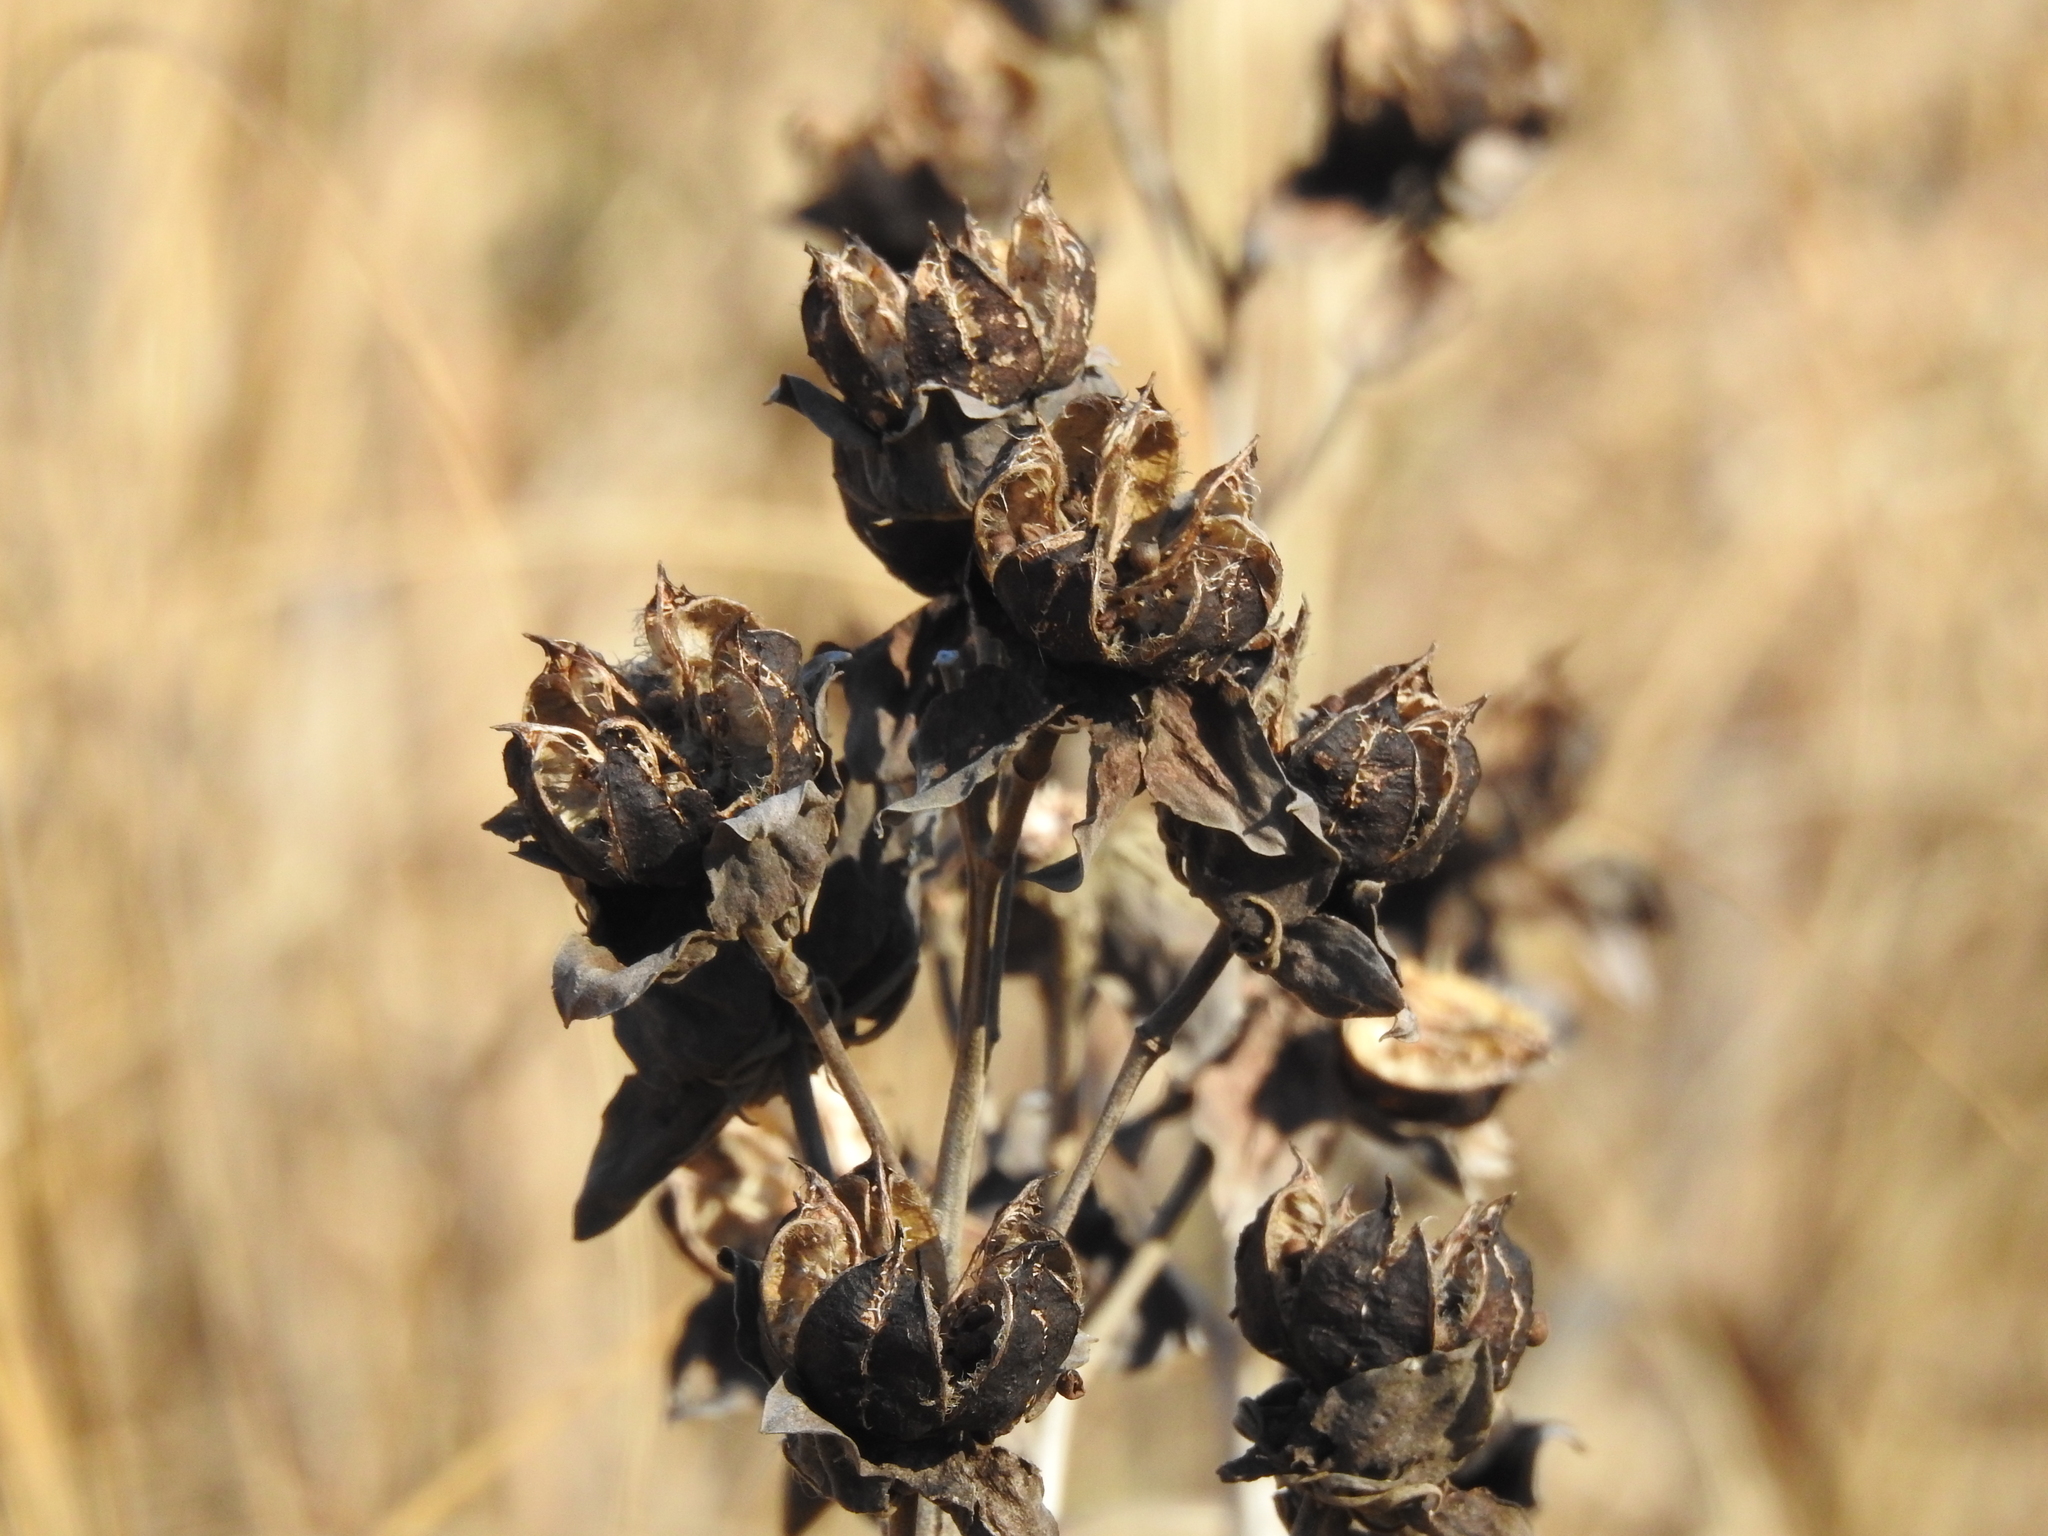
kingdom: Plantae
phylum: Tracheophyta
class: Magnoliopsida
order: Malvales
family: Malvaceae
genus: Hibiscus
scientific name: Hibiscus moscheutos
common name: Common rose-mallow
